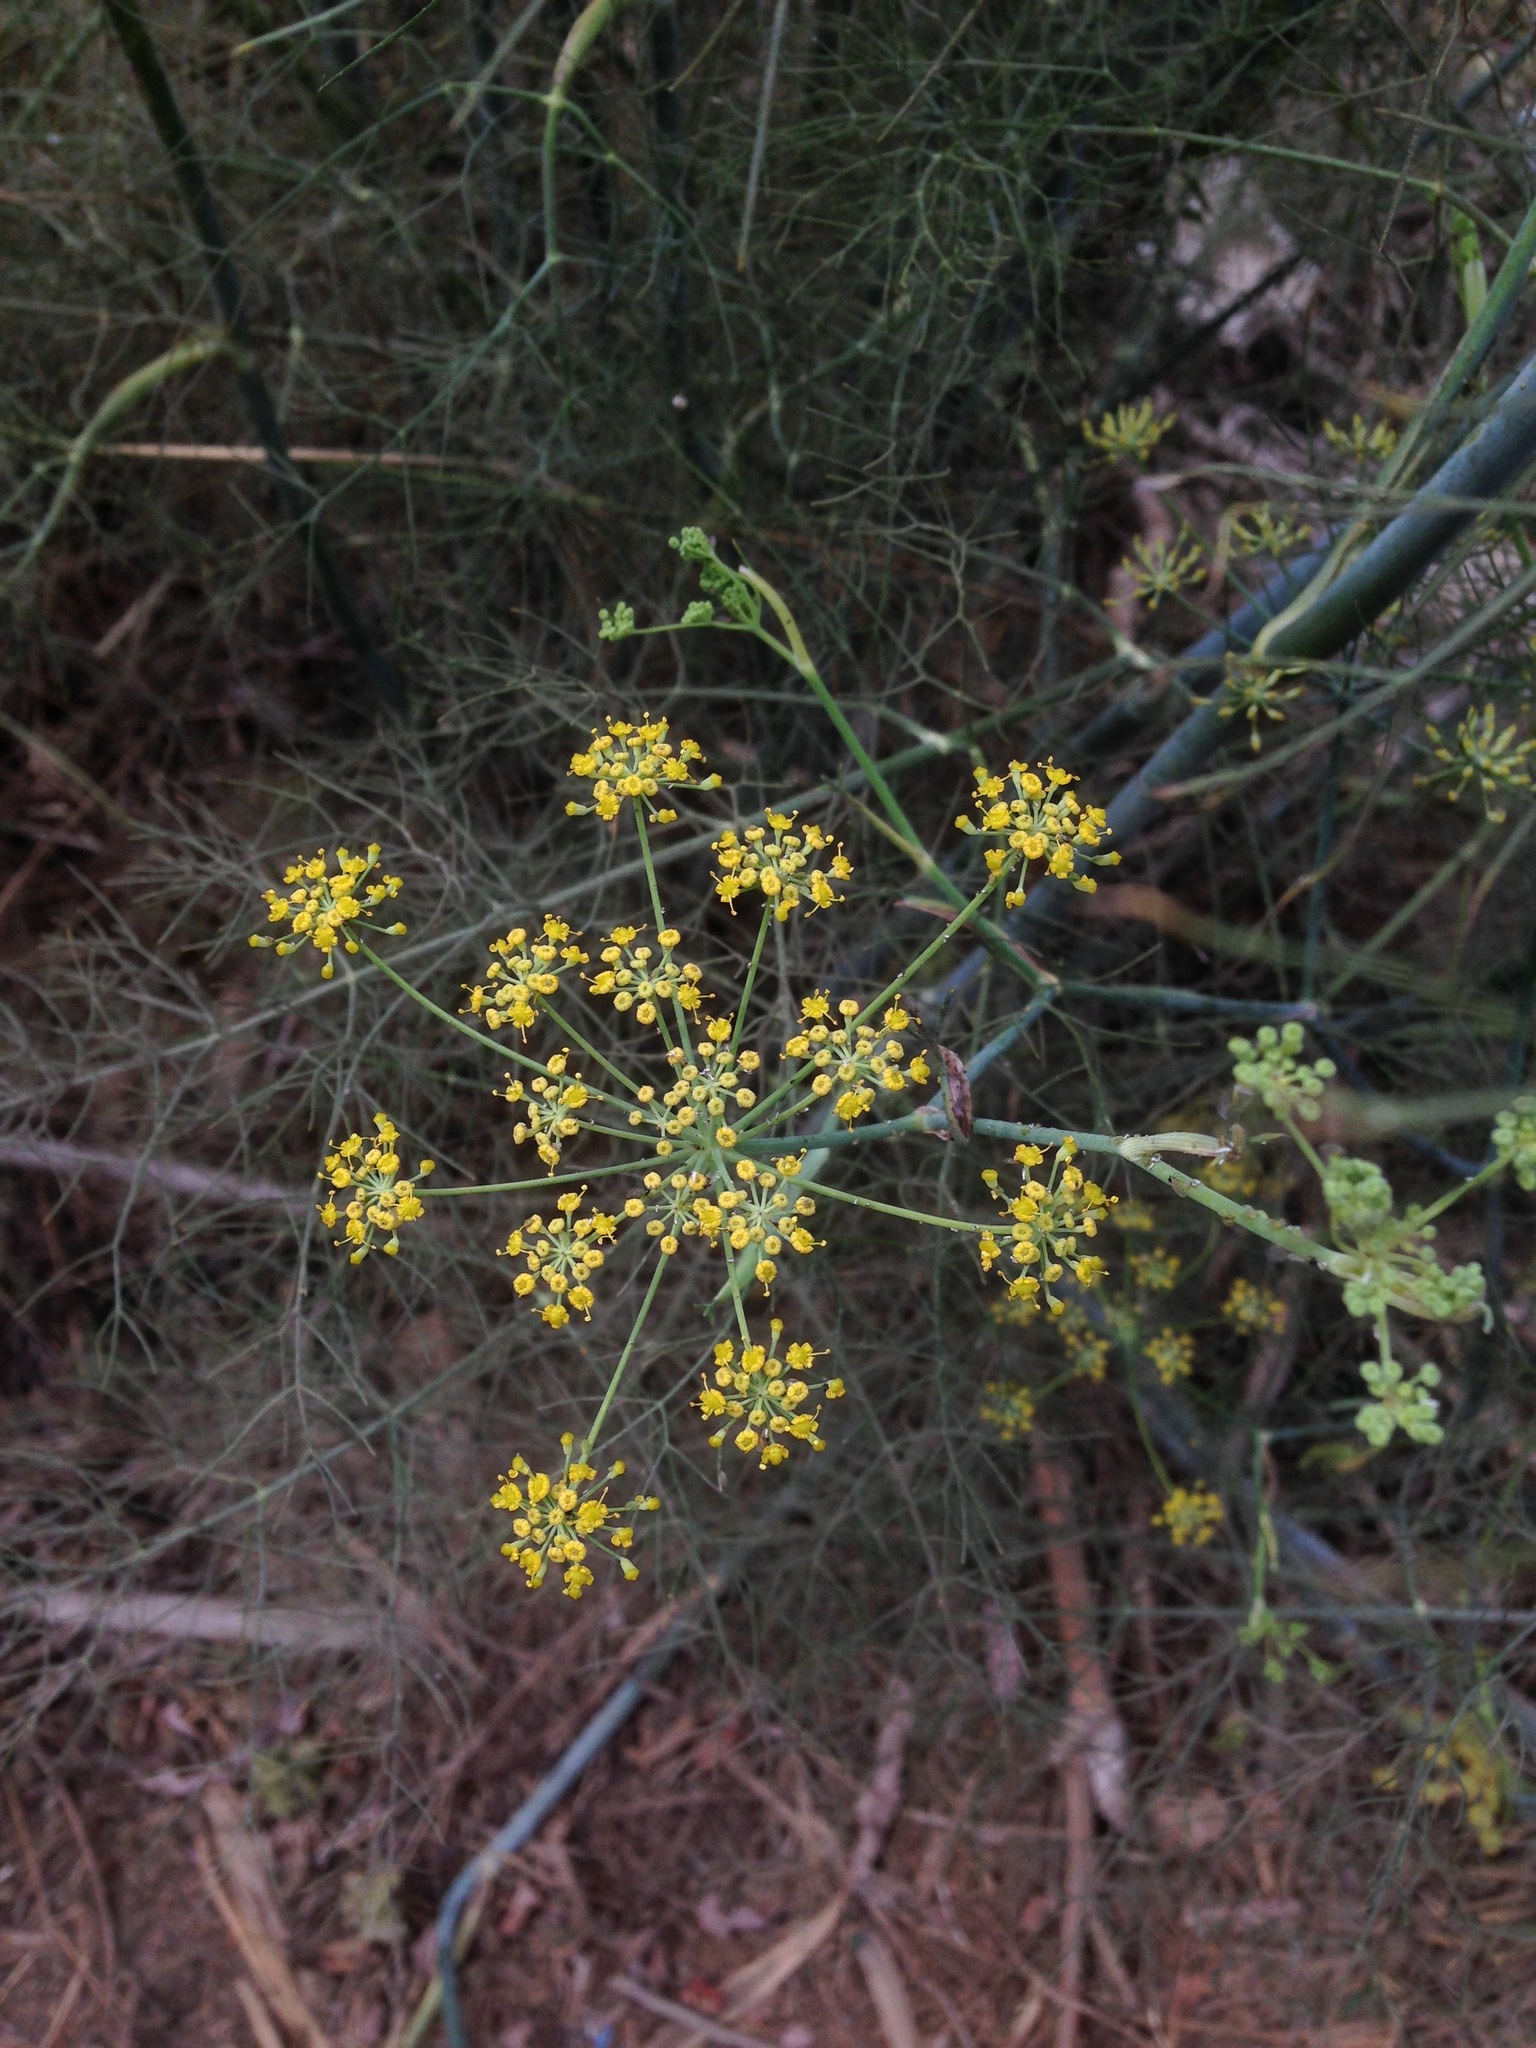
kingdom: Plantae
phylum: Tracheophyta
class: Magnoliopsida
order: Apiales
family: Apiaceae
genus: Foeniculum
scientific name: Foeniculum vulgare
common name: Fennel
